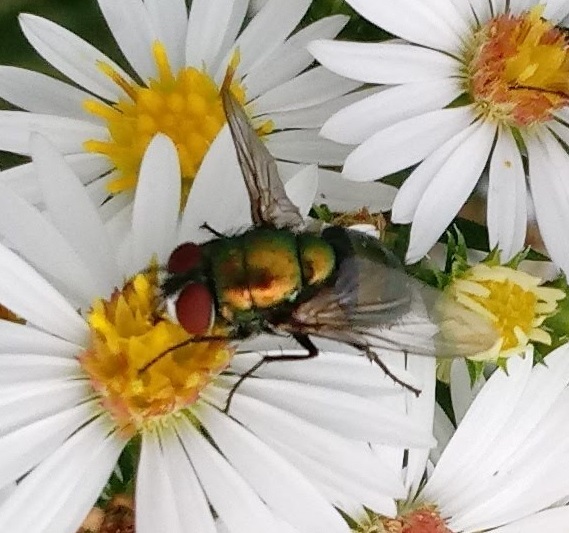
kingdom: Animalia
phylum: Arthropoda
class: Insecta
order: Diptera
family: Calliphoridae
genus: Lucilia
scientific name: Lucilia sericata
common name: Blow fly
